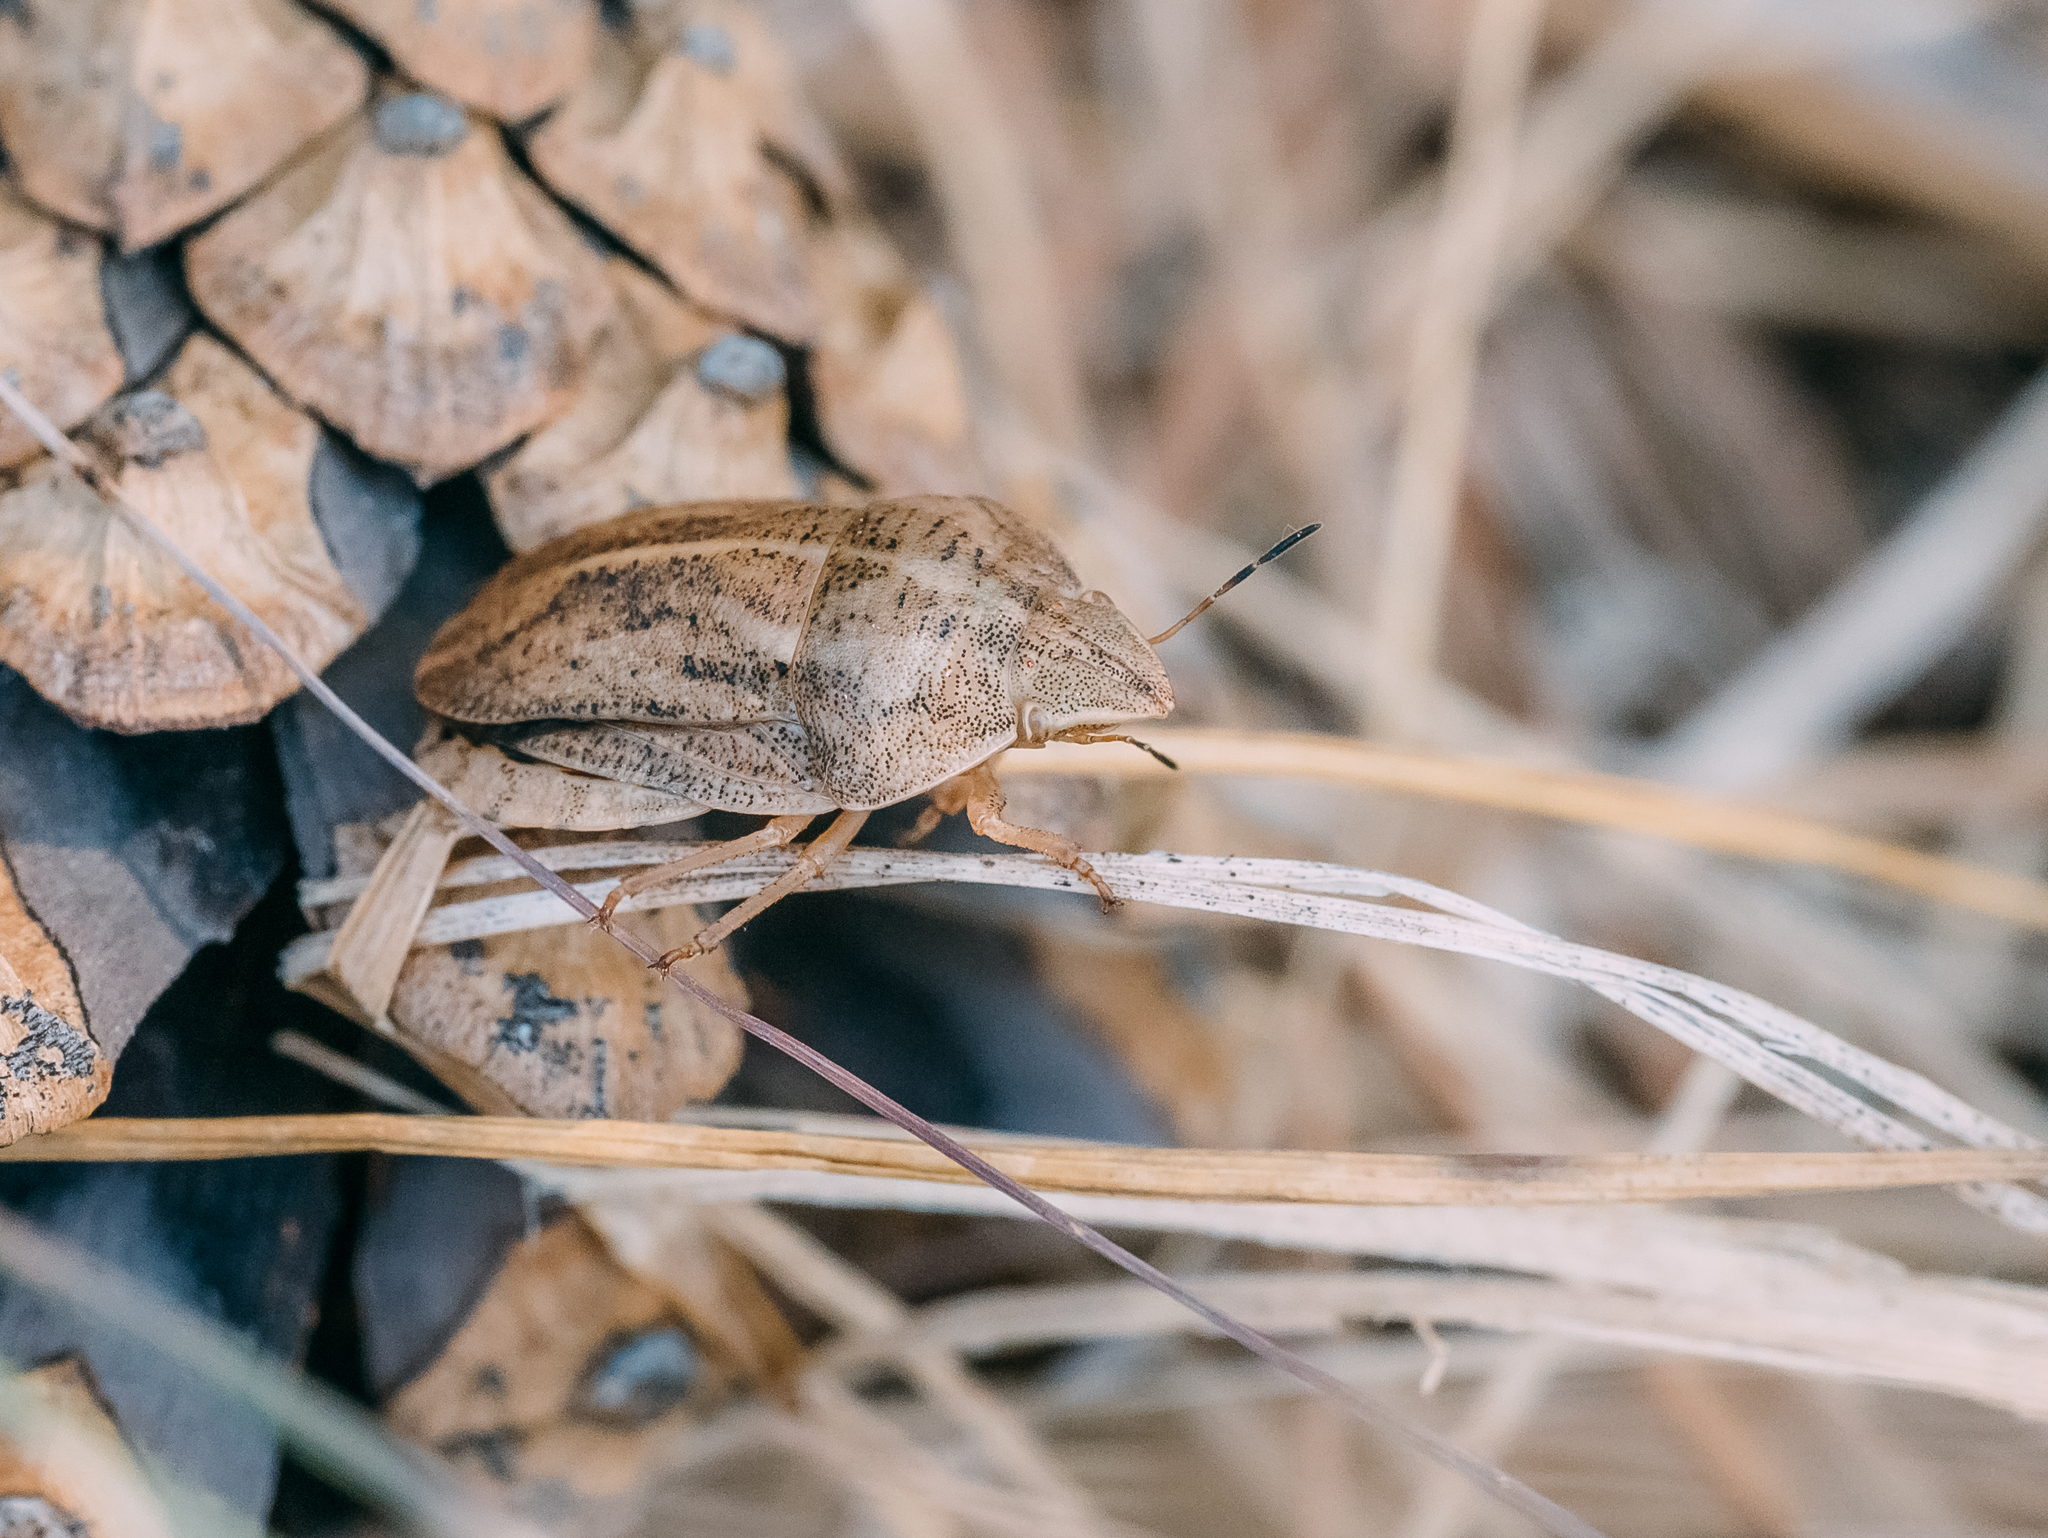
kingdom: Animalia
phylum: Arthropoda
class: Insecta
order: Hemiptera
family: Scutelleridae
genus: Eurygaster
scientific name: Eurygaster austriaca
